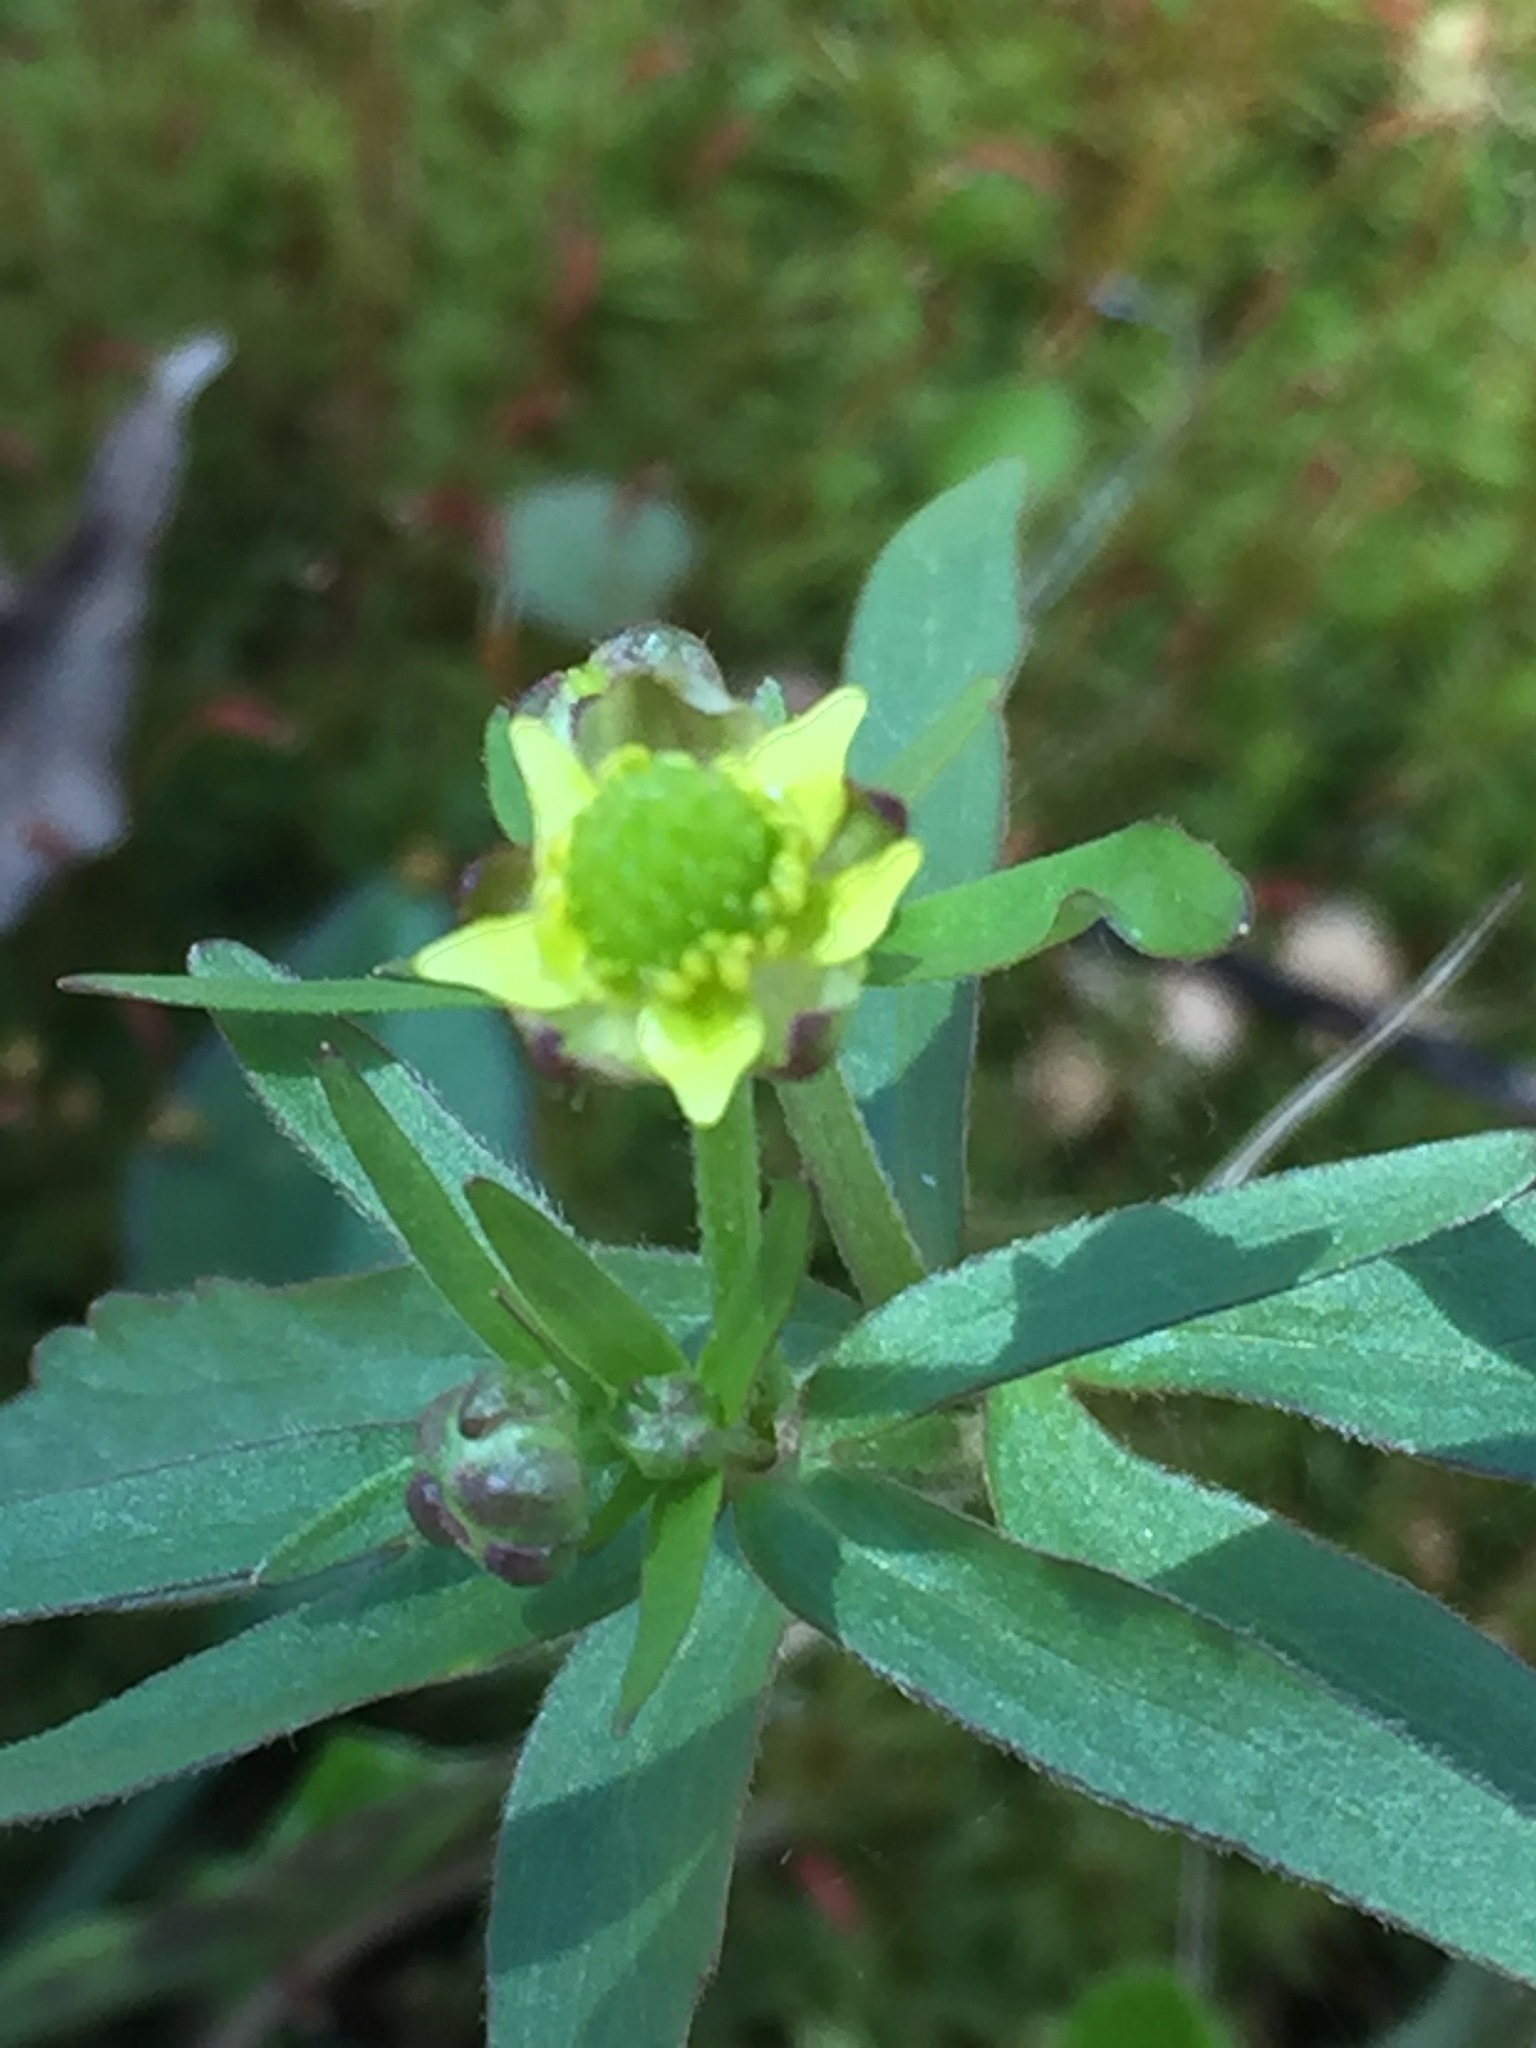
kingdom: Plantae
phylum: Tracheophyta
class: Magnoliopsida
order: Ranunculales
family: Ranunculaceae
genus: Ranunculus
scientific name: Ranunculus abortivus
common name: Early wood buttercup
